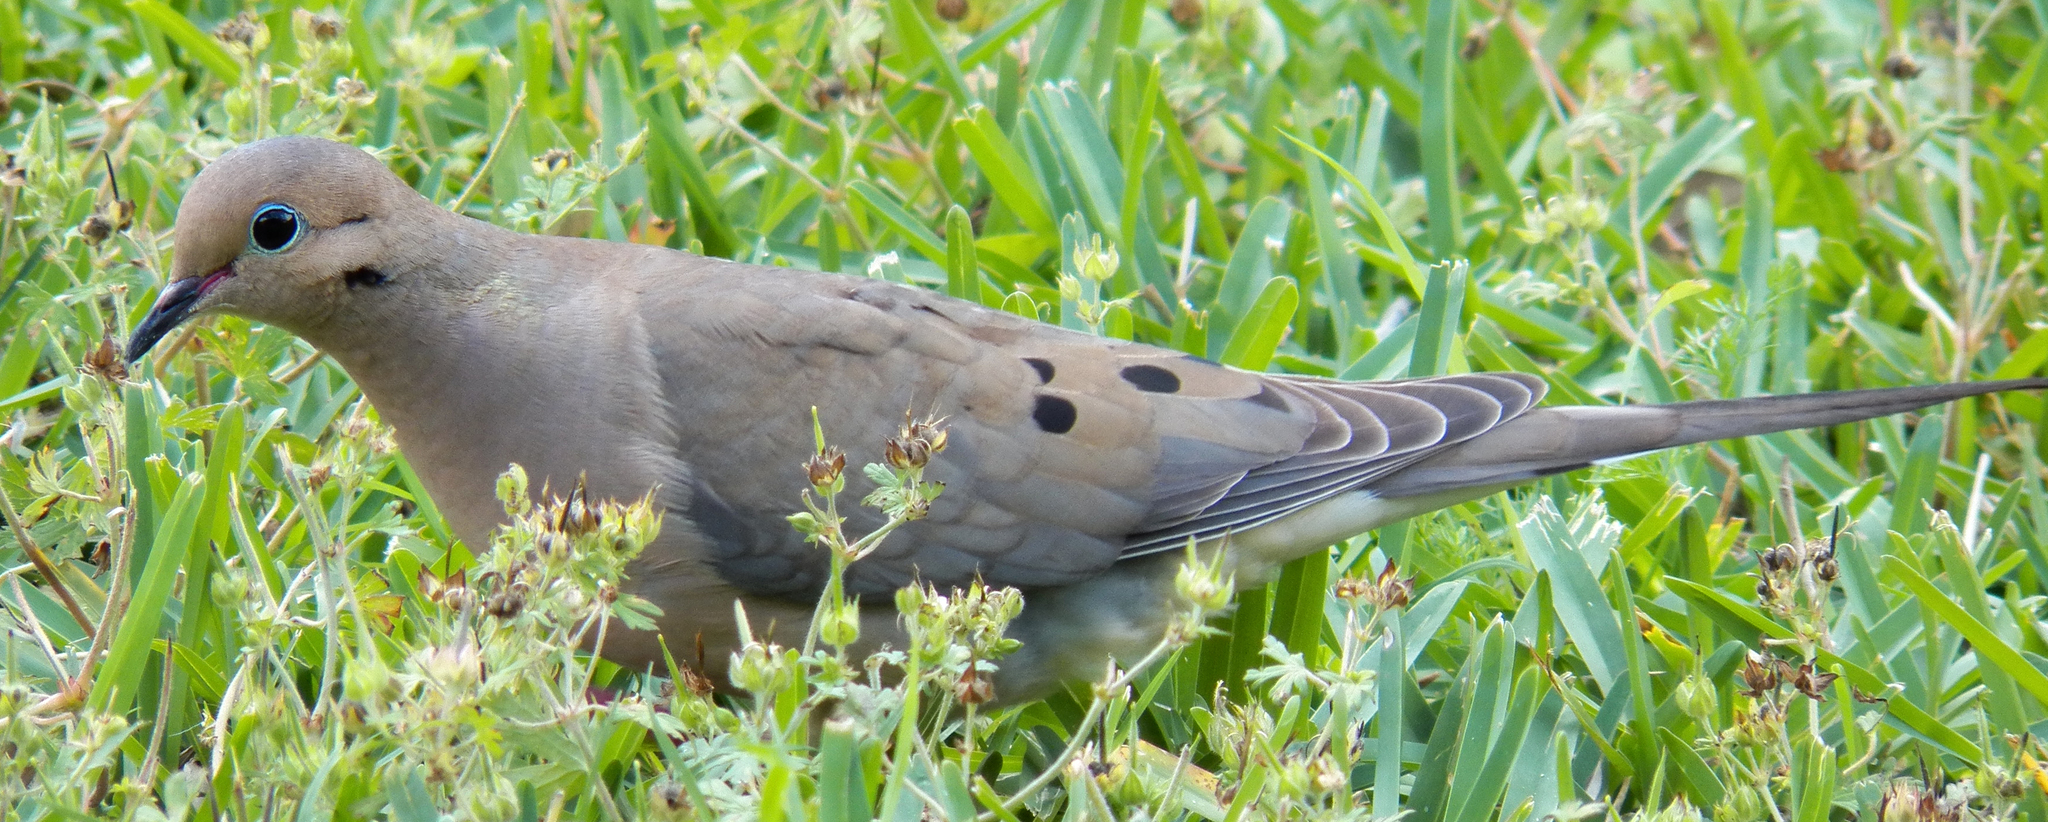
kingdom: Animalia
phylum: Chordata
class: Aves
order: Columbiformes
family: Columbidae
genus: Zenaida
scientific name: Zenaida macroura
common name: Mourning dove
